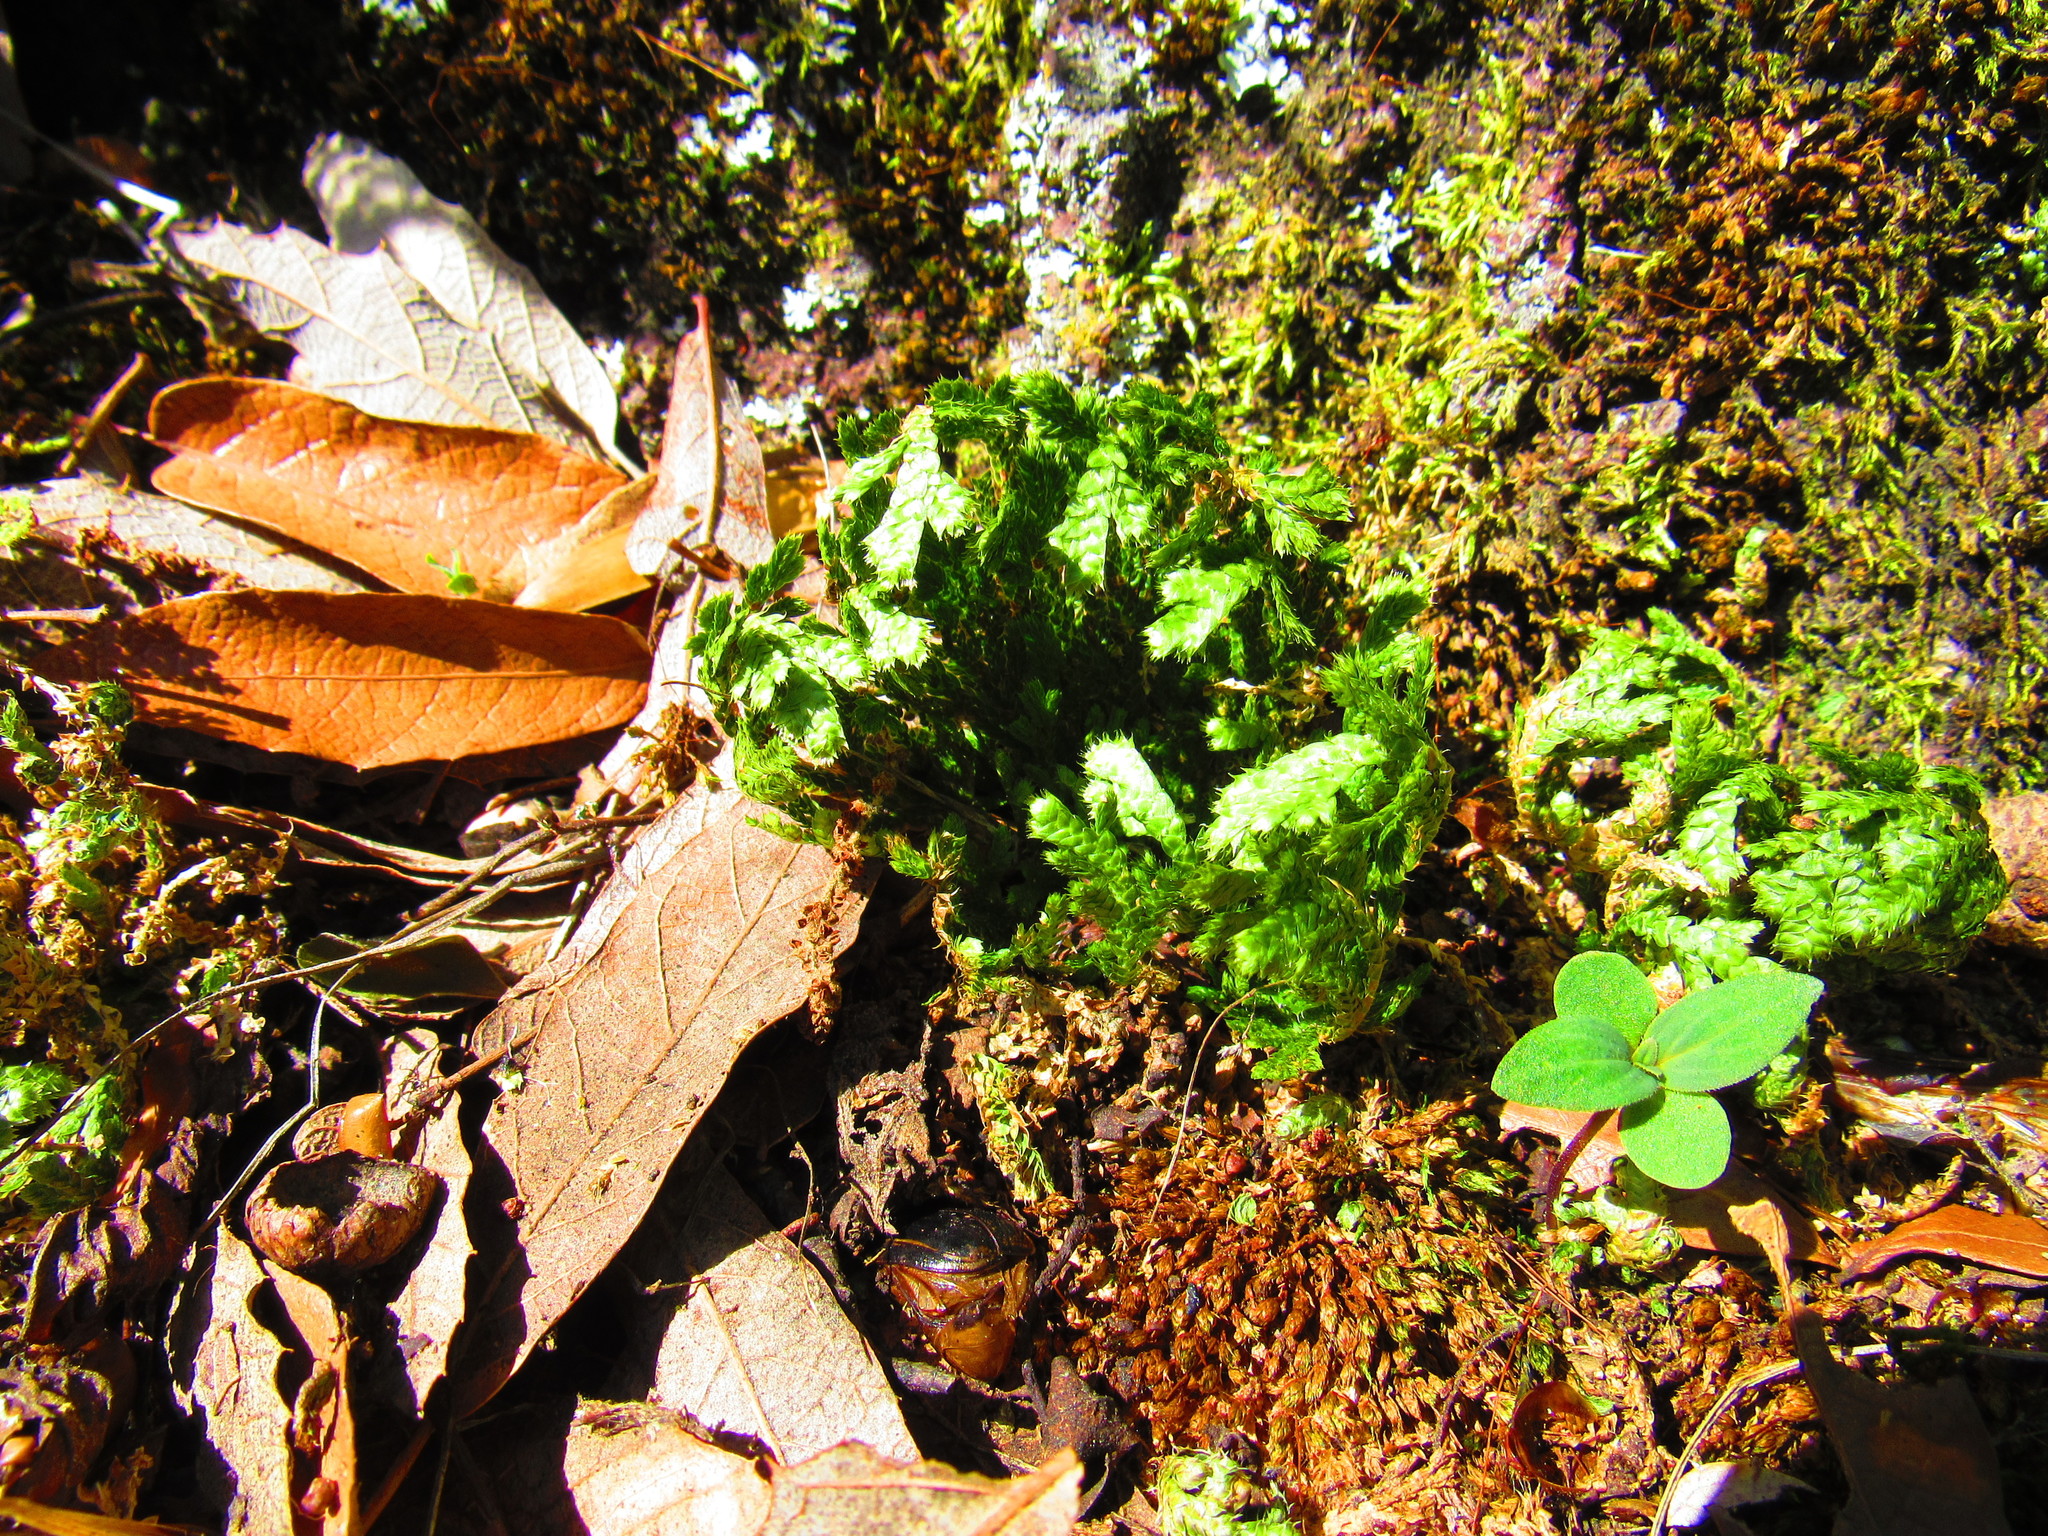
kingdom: Plantae
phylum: Tracheophyta
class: Lycopodiopsida
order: Selaginellales
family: Selaginellaceae
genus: Selaginella
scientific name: Selaginella lepidophylla
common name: Rose-of-jericho
